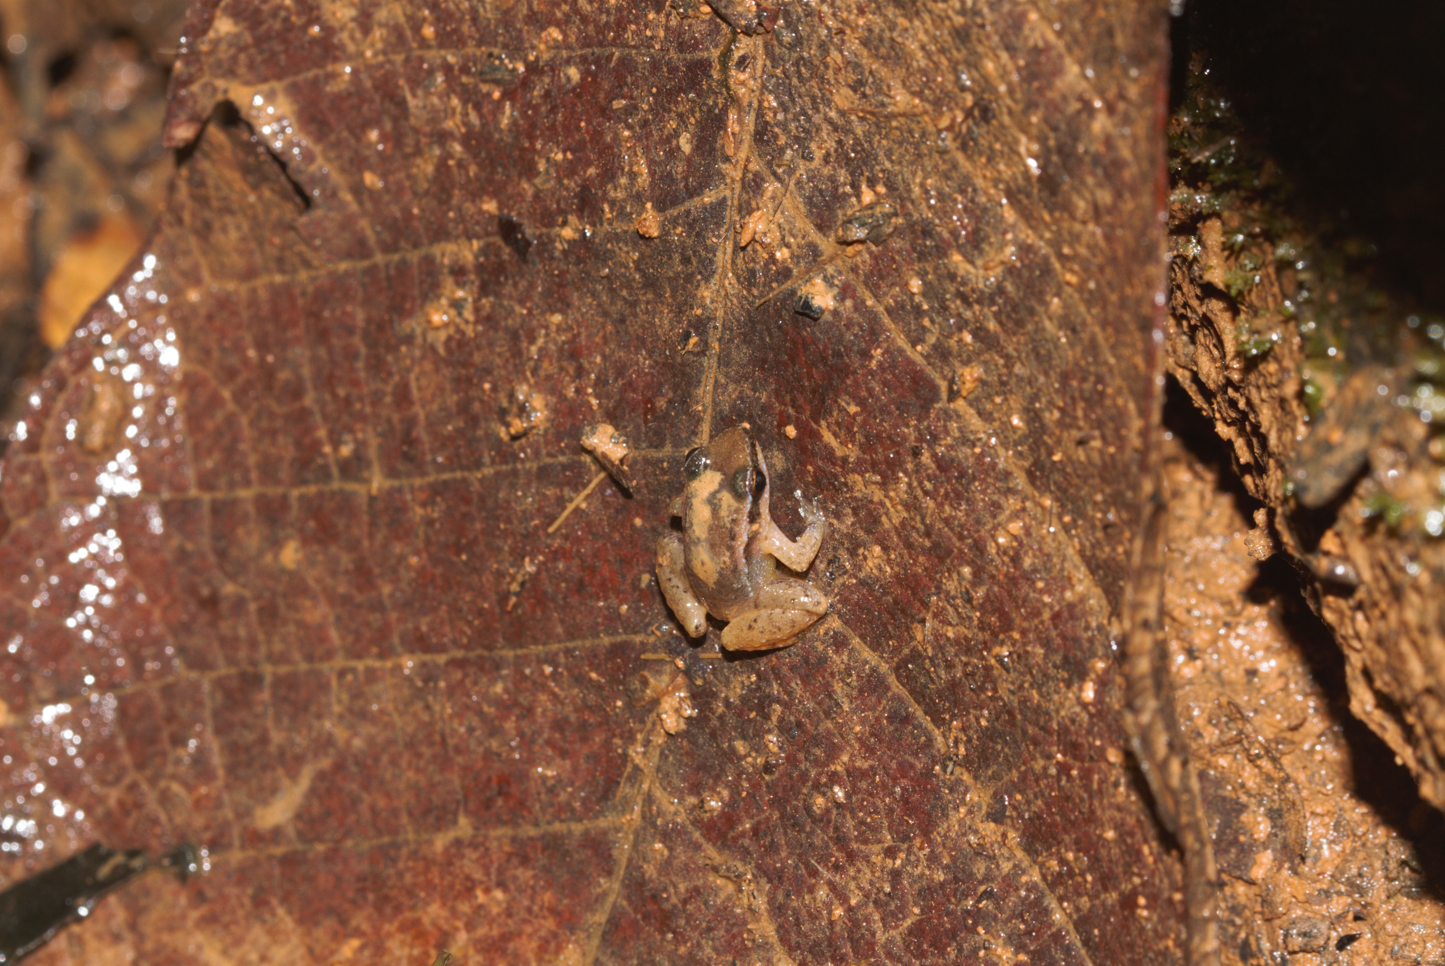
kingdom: Animalia
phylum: Chordata
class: Amphibia
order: Anura
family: Aromobatidae
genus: Anomaloglossus
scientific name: Anomaloglossus baeobatrachus
